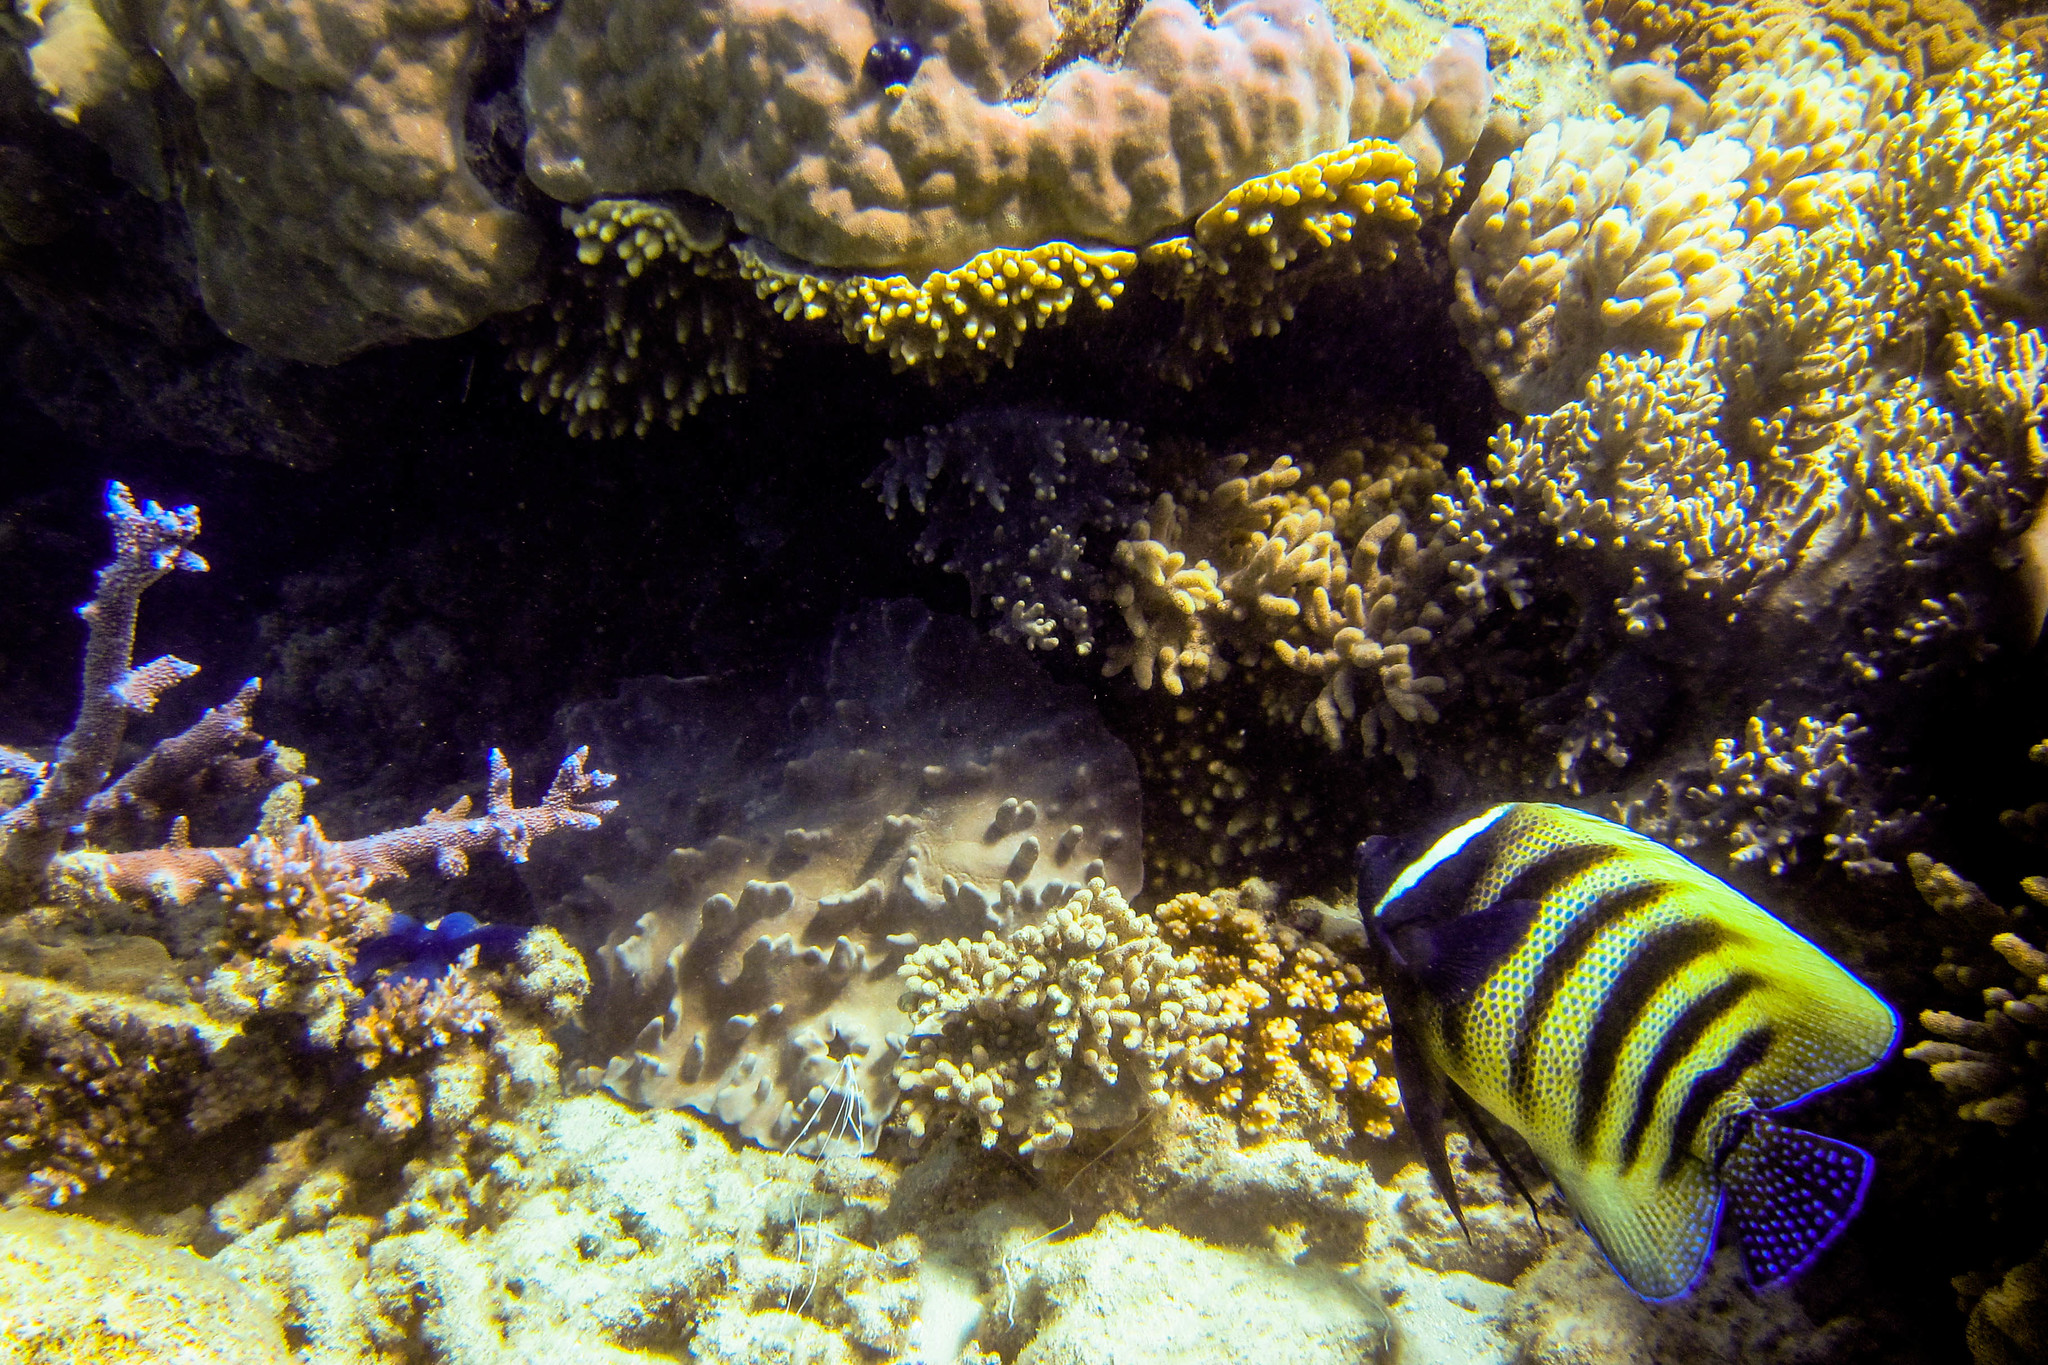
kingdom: Animalia
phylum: Chordata
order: Perciformes
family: Pomacanthidae
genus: Pomacanthus
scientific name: Pomacanthus sexstriatus
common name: Six-banded angelfish
